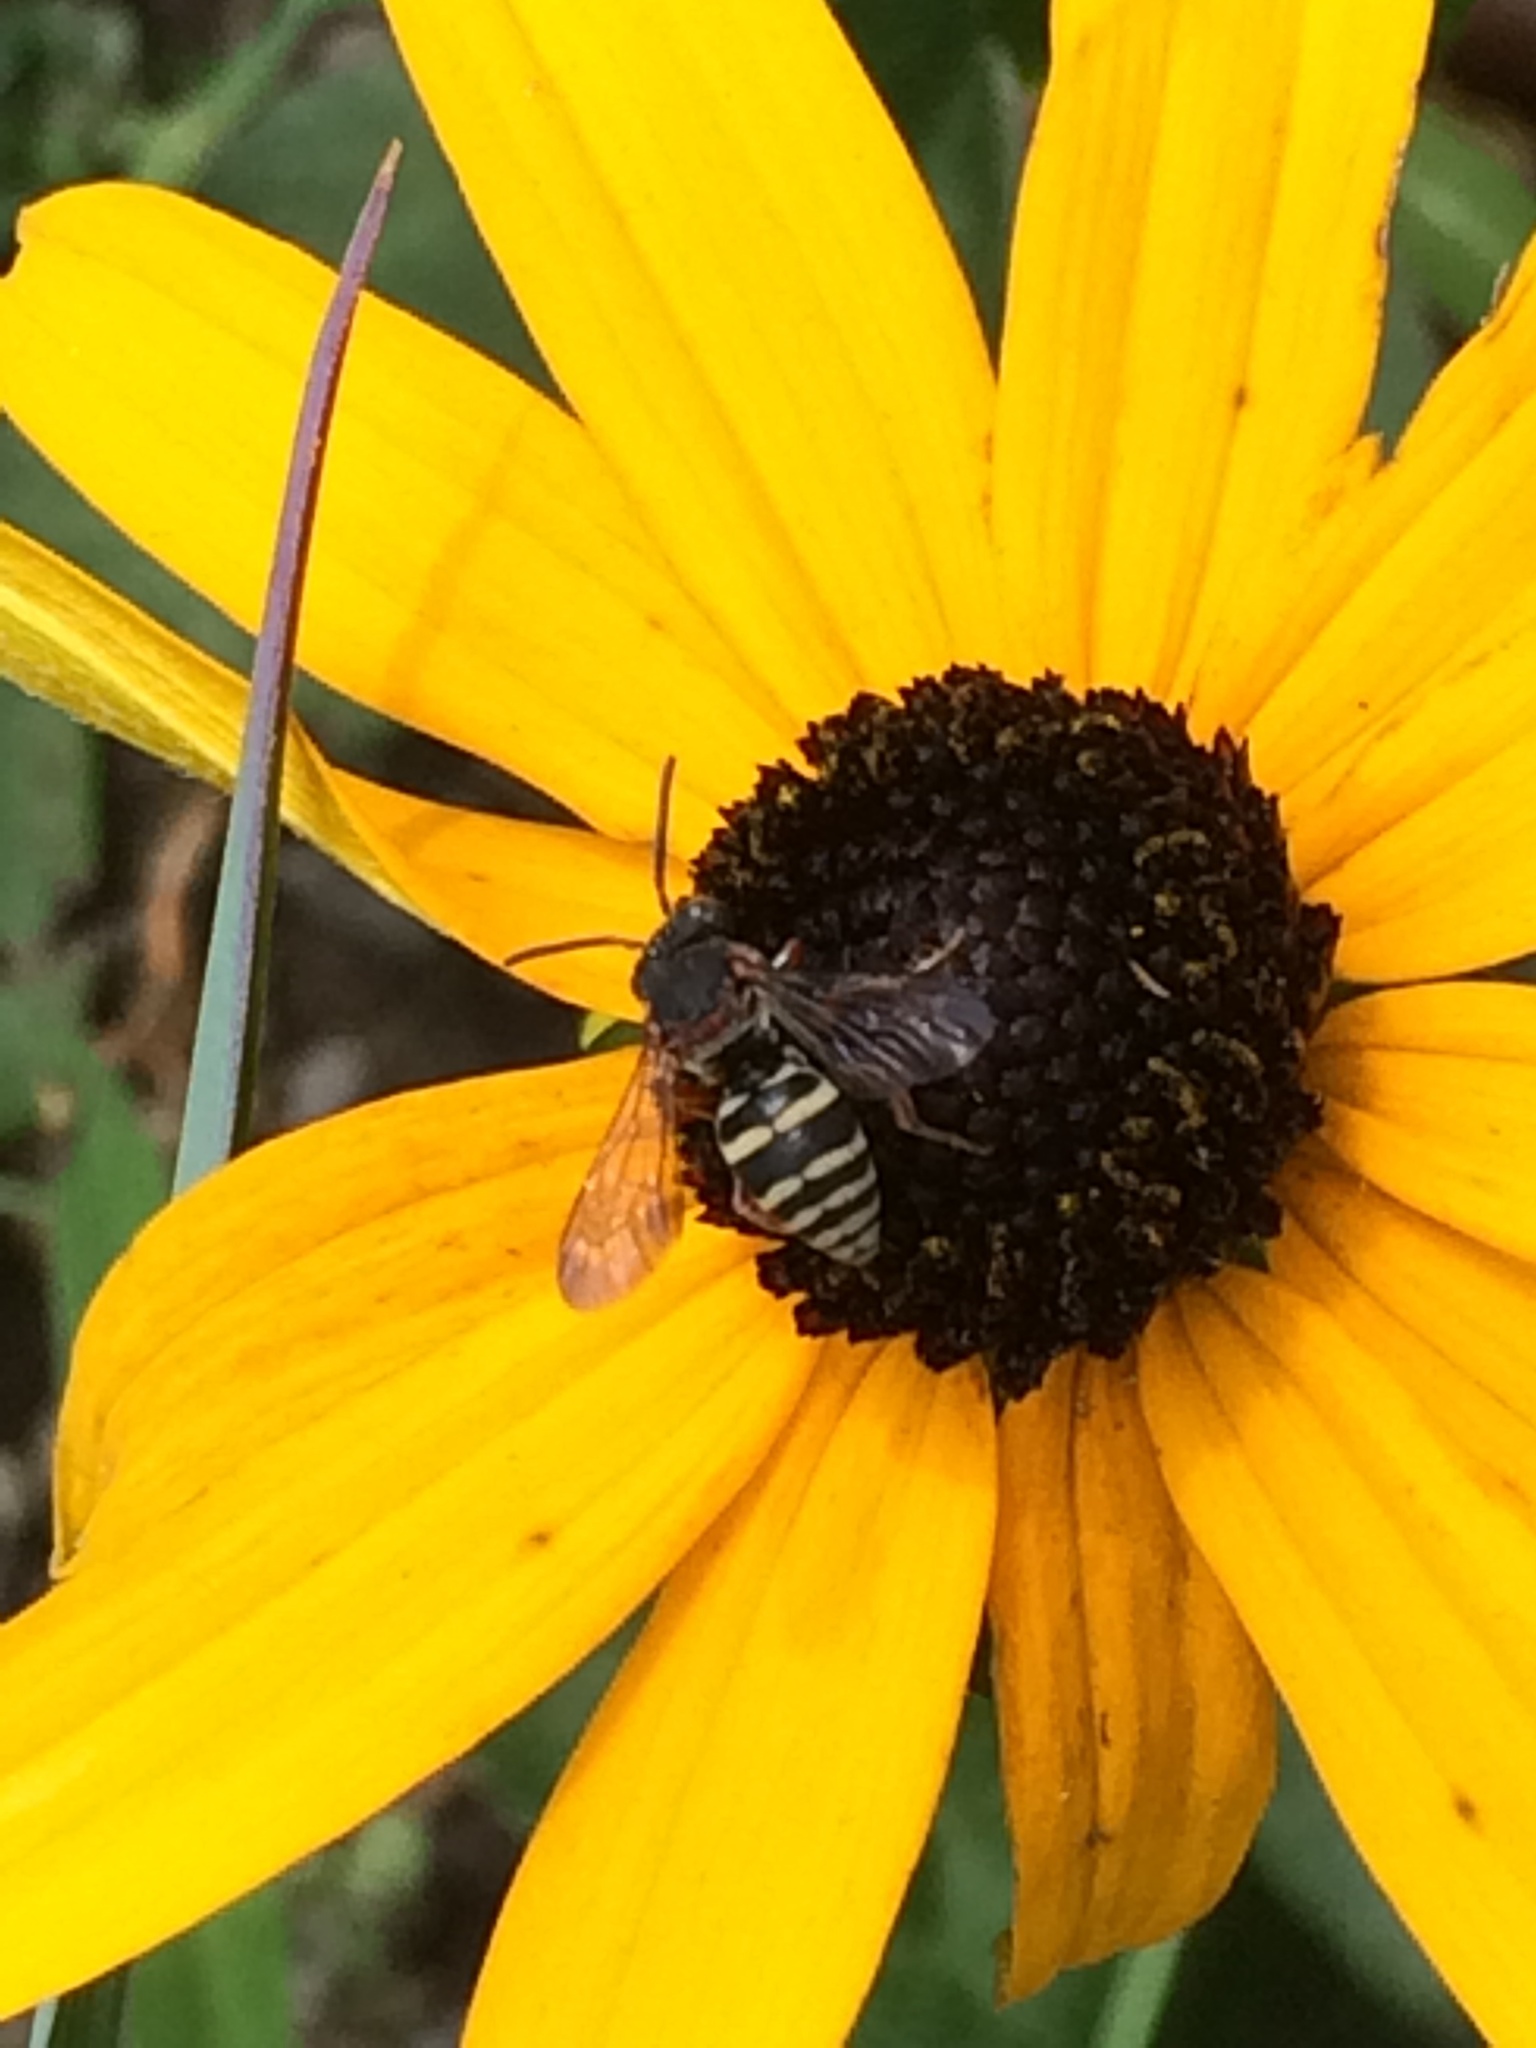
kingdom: Animalia
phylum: Arthropoda
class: Insecta
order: Hymenoptera
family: Apidae
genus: Epeolus
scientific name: Epeolus scutellaris
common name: Notch-backed cellophane-cuckoo bee
